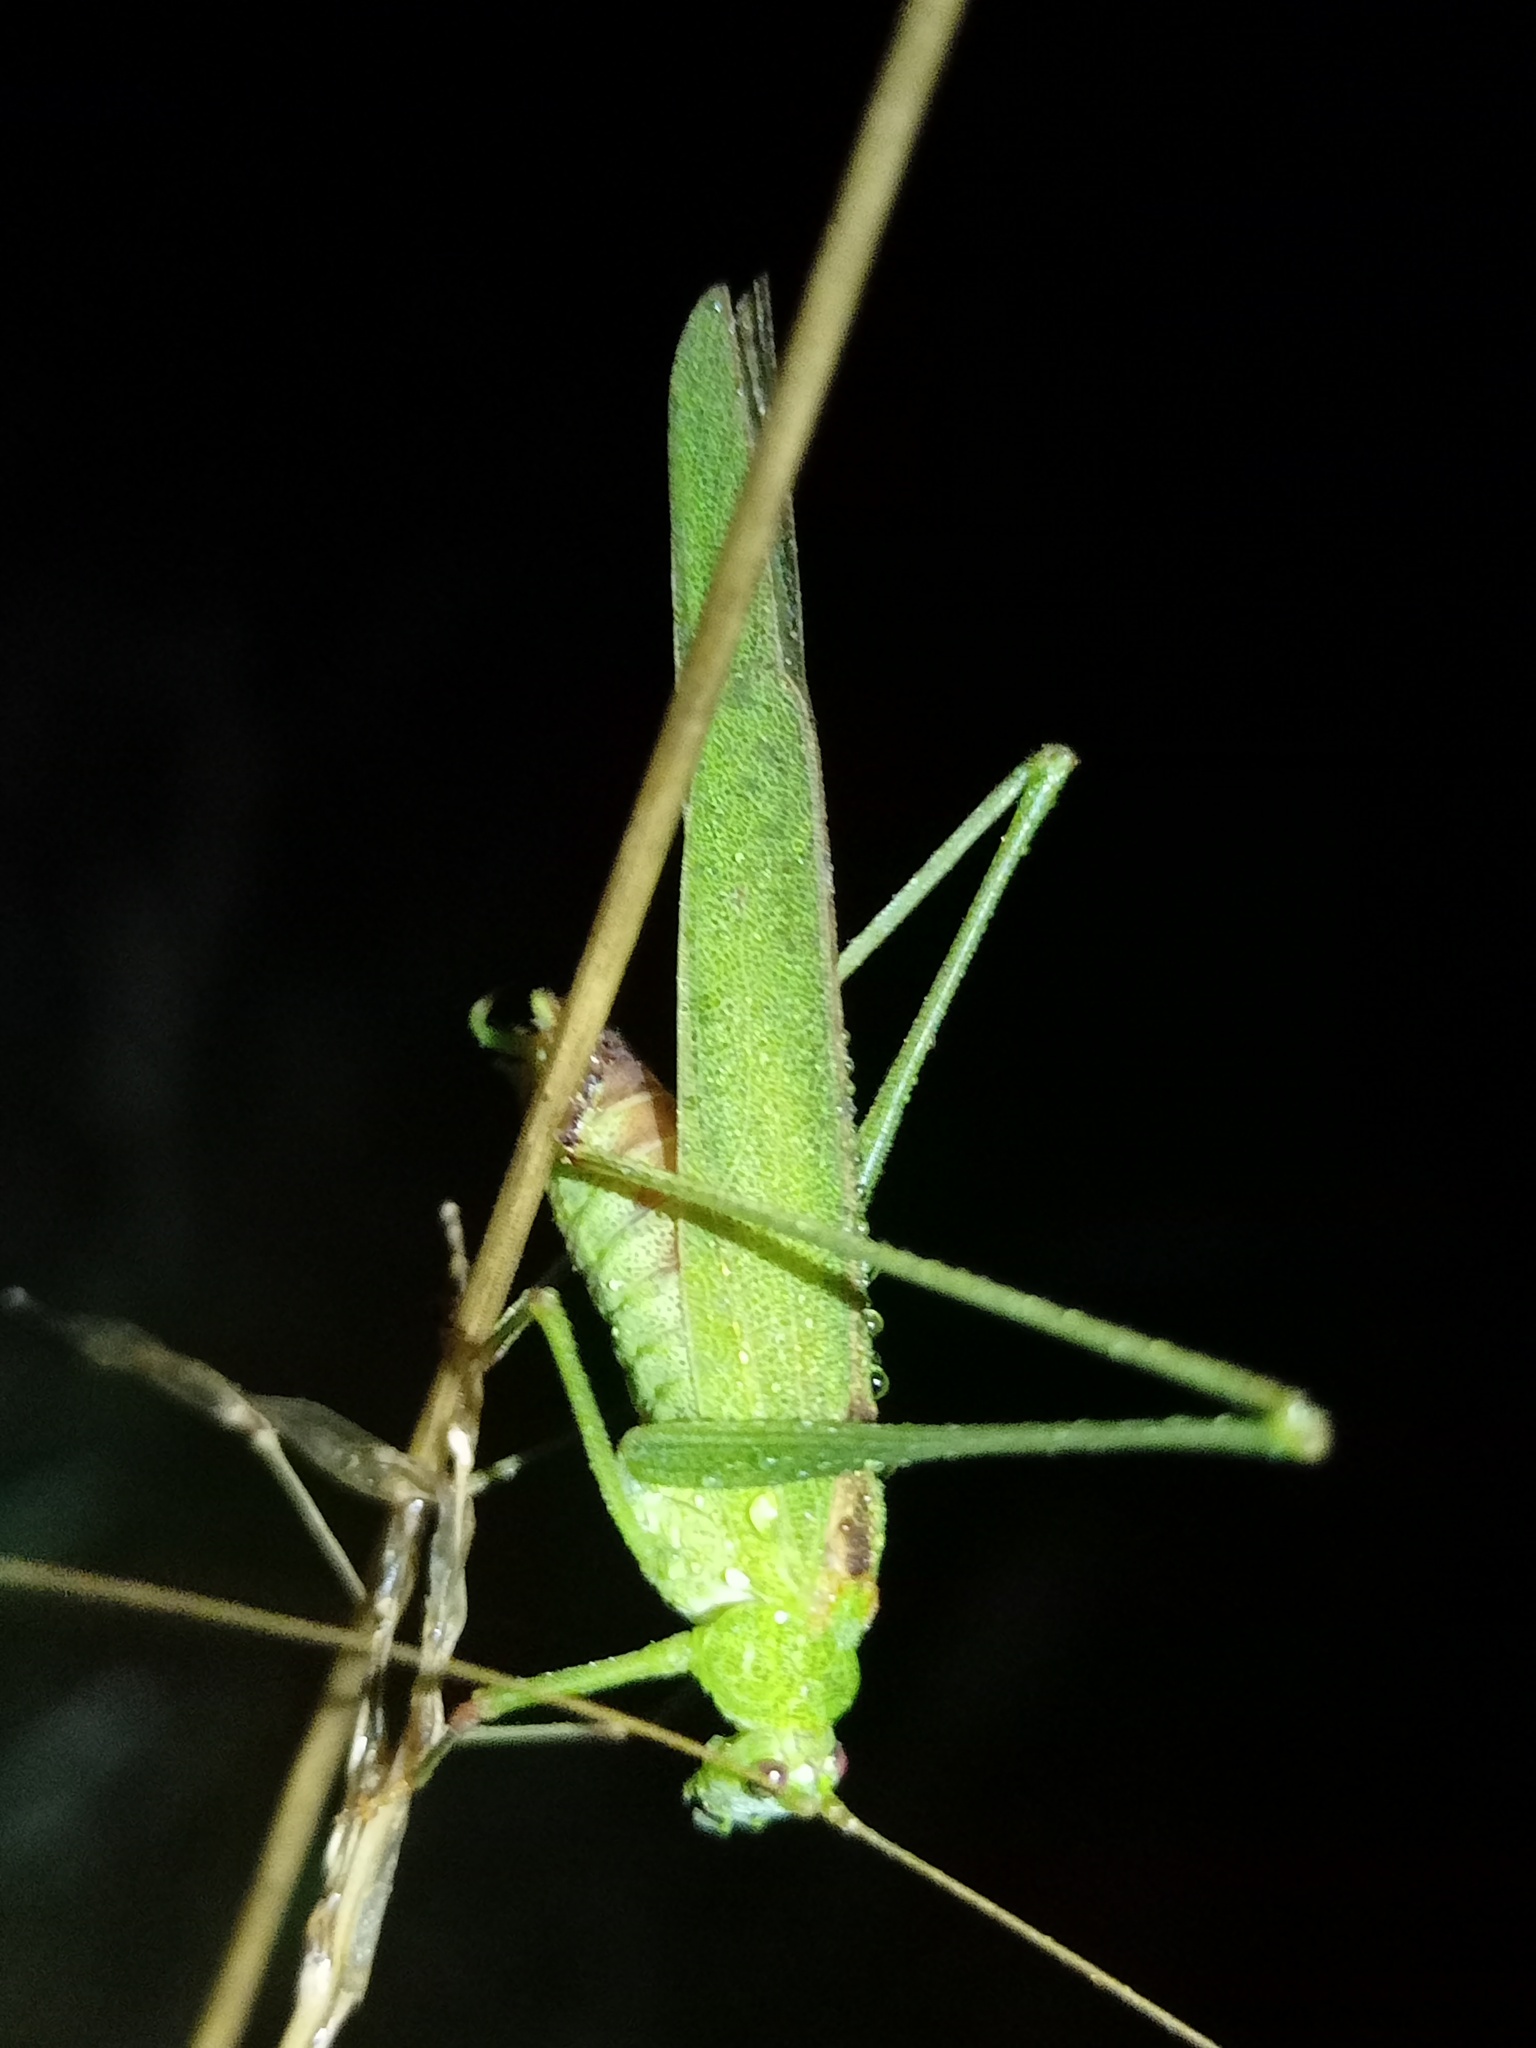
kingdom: Animalia
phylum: Arthropoda
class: Insecta
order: Orthoptera
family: Tettigoniidae
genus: Phaneroptera
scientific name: Phaneroptera falcata
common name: Sickle-bearing bush-cricket
